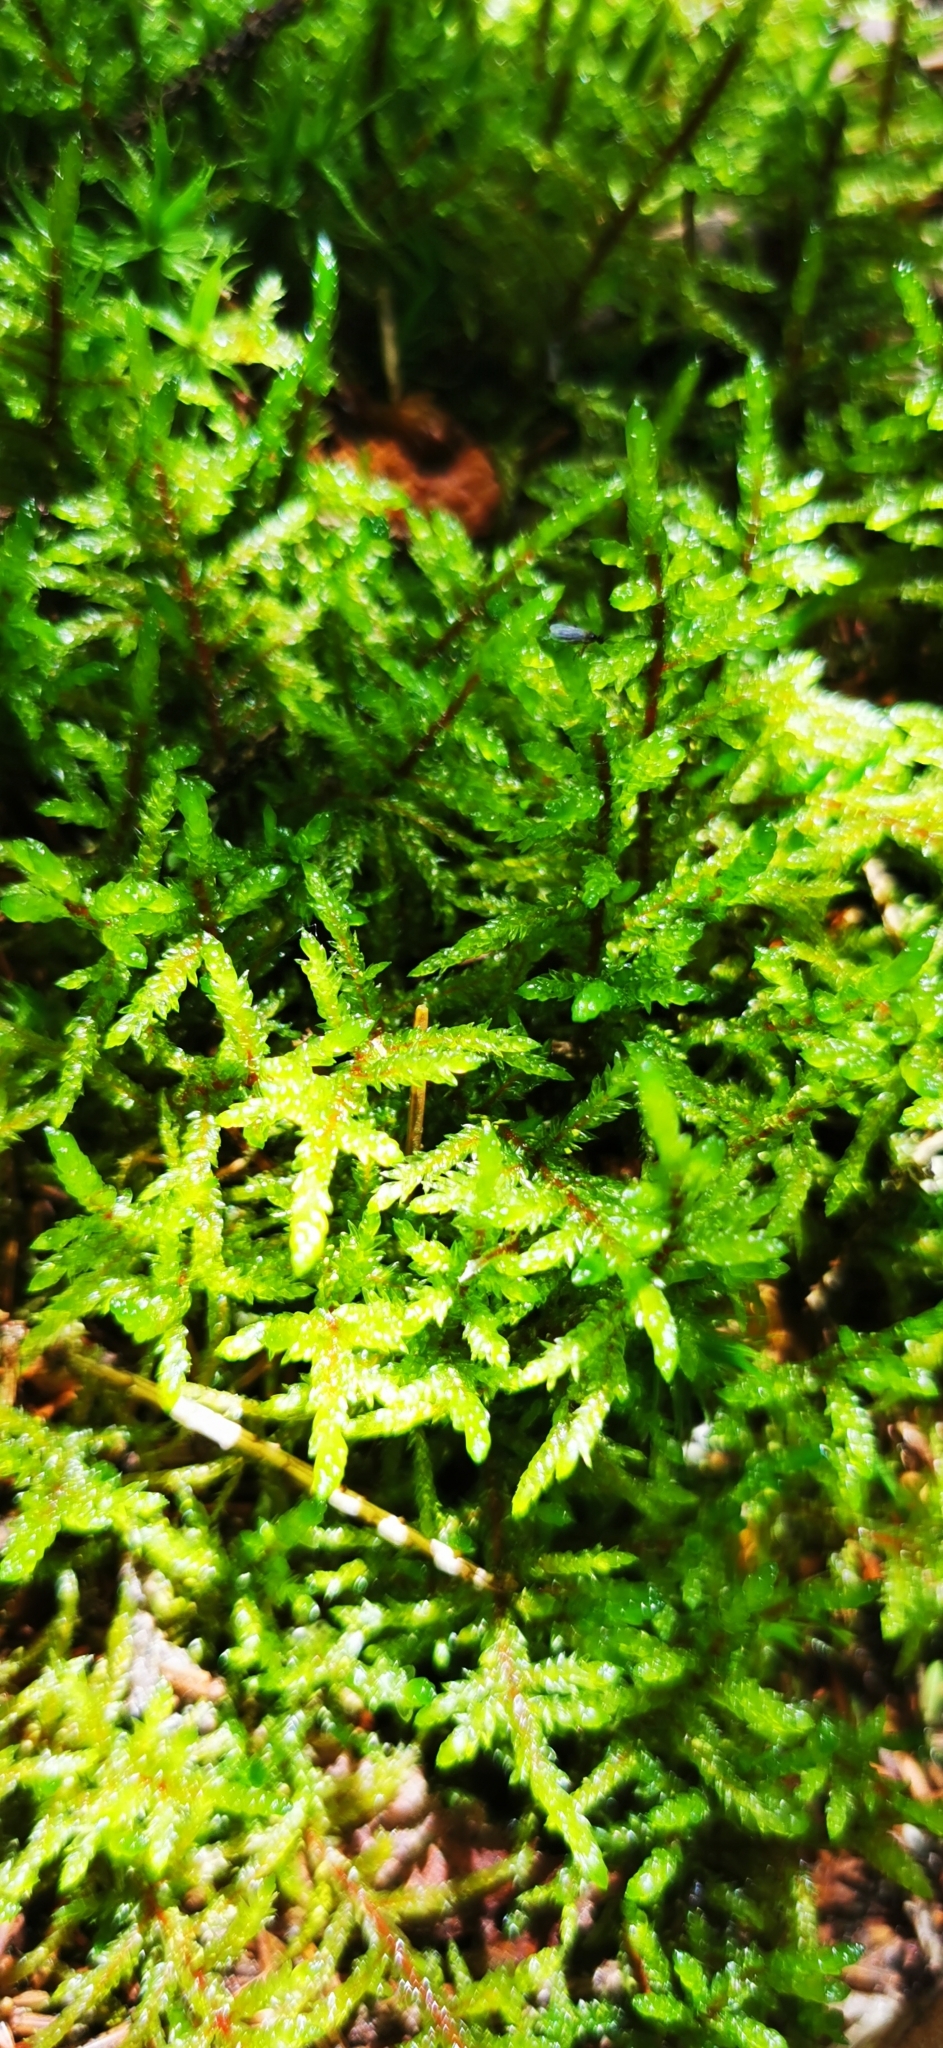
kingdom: Plantae
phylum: Bryophyta
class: Bryopsida
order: Hypnales
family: Hylocomiaceae
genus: Pleurozium
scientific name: Pleurozium schreberi
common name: Red-stemmed feather moss
